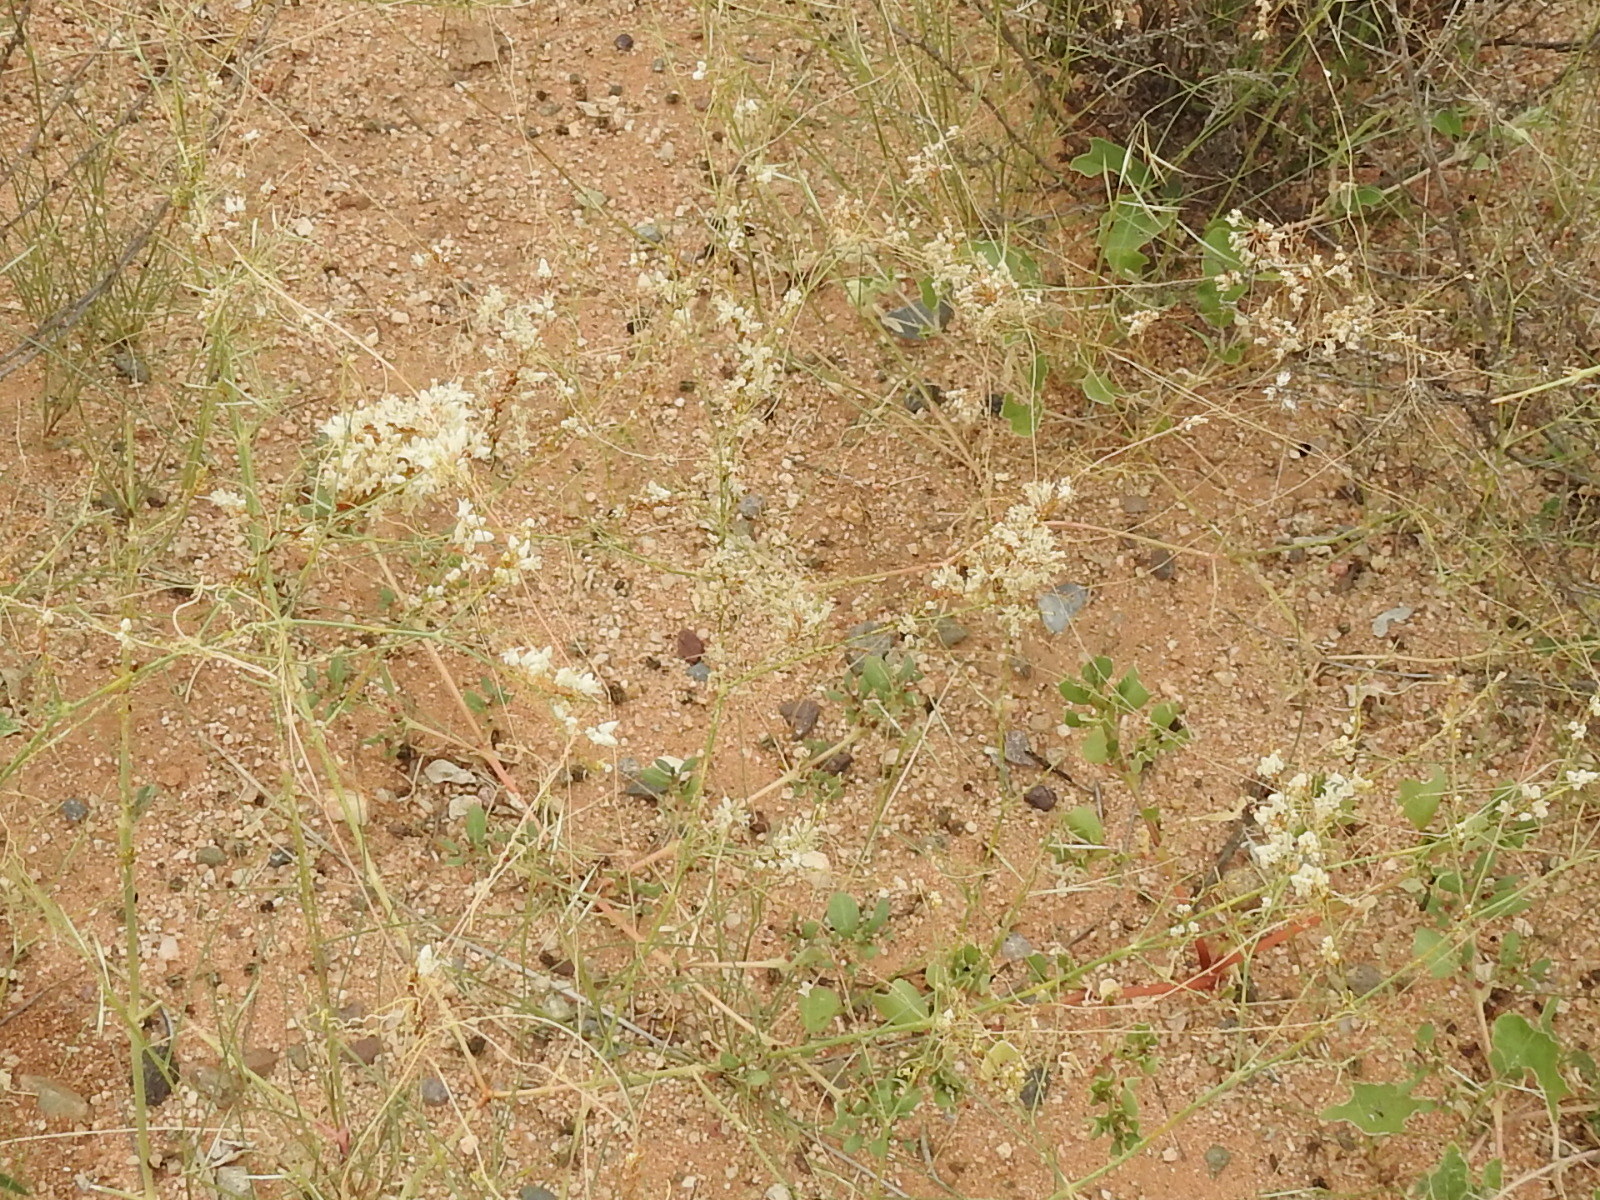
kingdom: Plantae
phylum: Tracheophyta
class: Magnoliopsida
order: Solanales
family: Convolvulaceae
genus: Cuscuta
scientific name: Cuscuta umbellata
